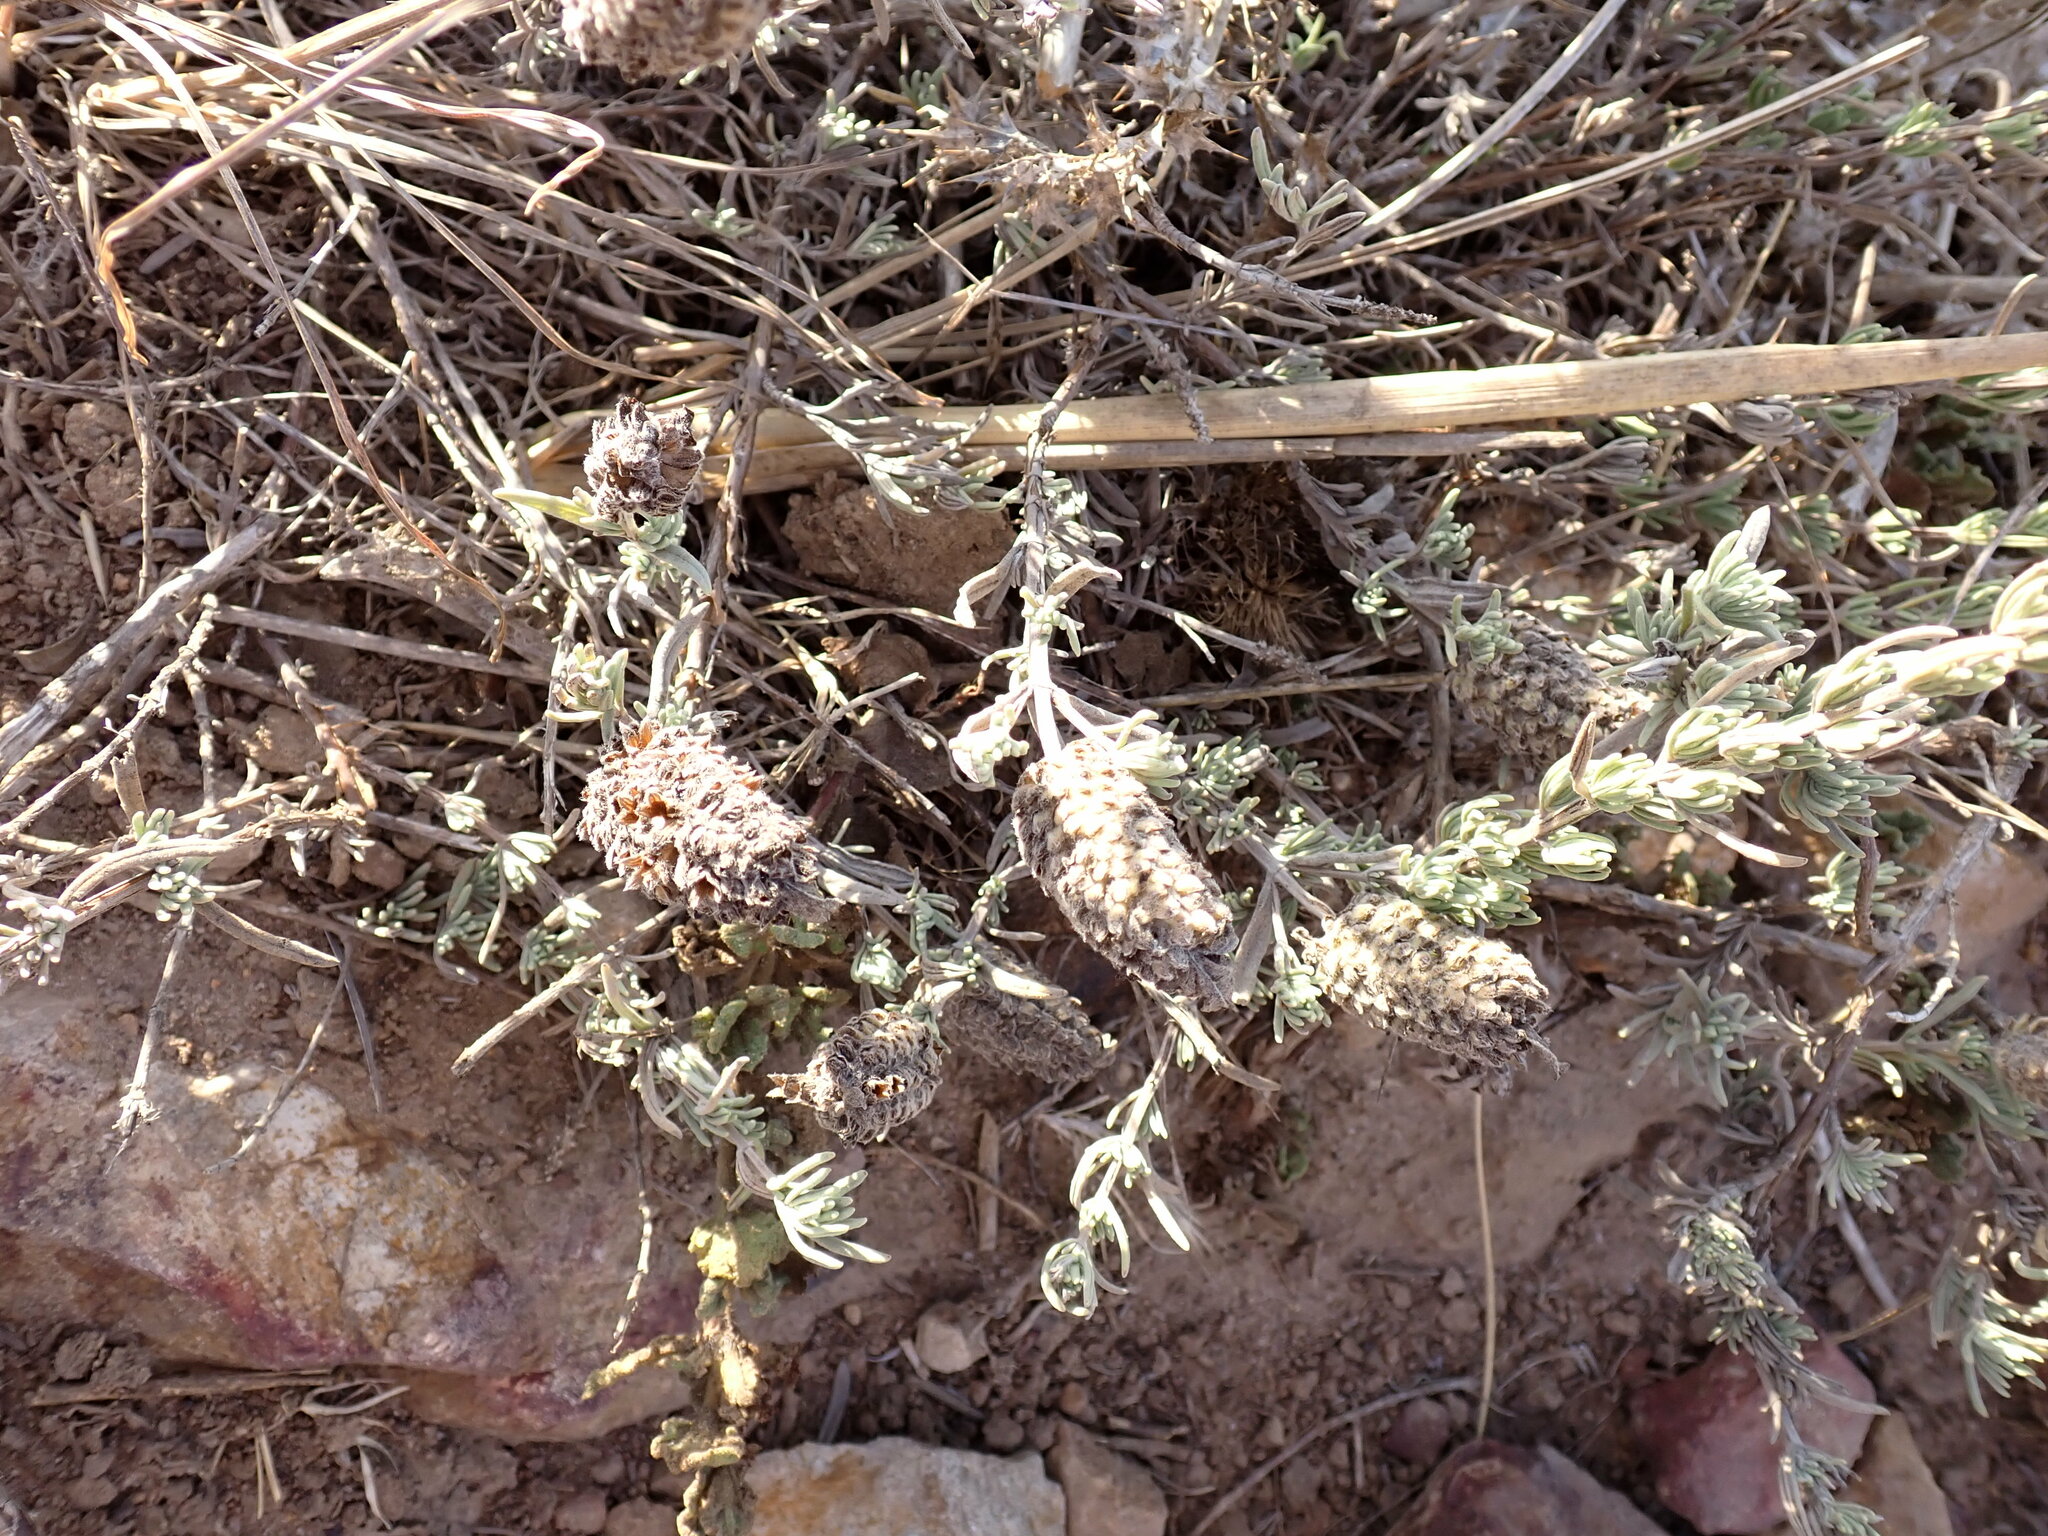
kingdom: Plantae
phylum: Tracheophyta
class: Magnoliopsida
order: Lamiales
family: Lamiaceae
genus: Lavandula
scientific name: Lavandula stoechas
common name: French lavender
